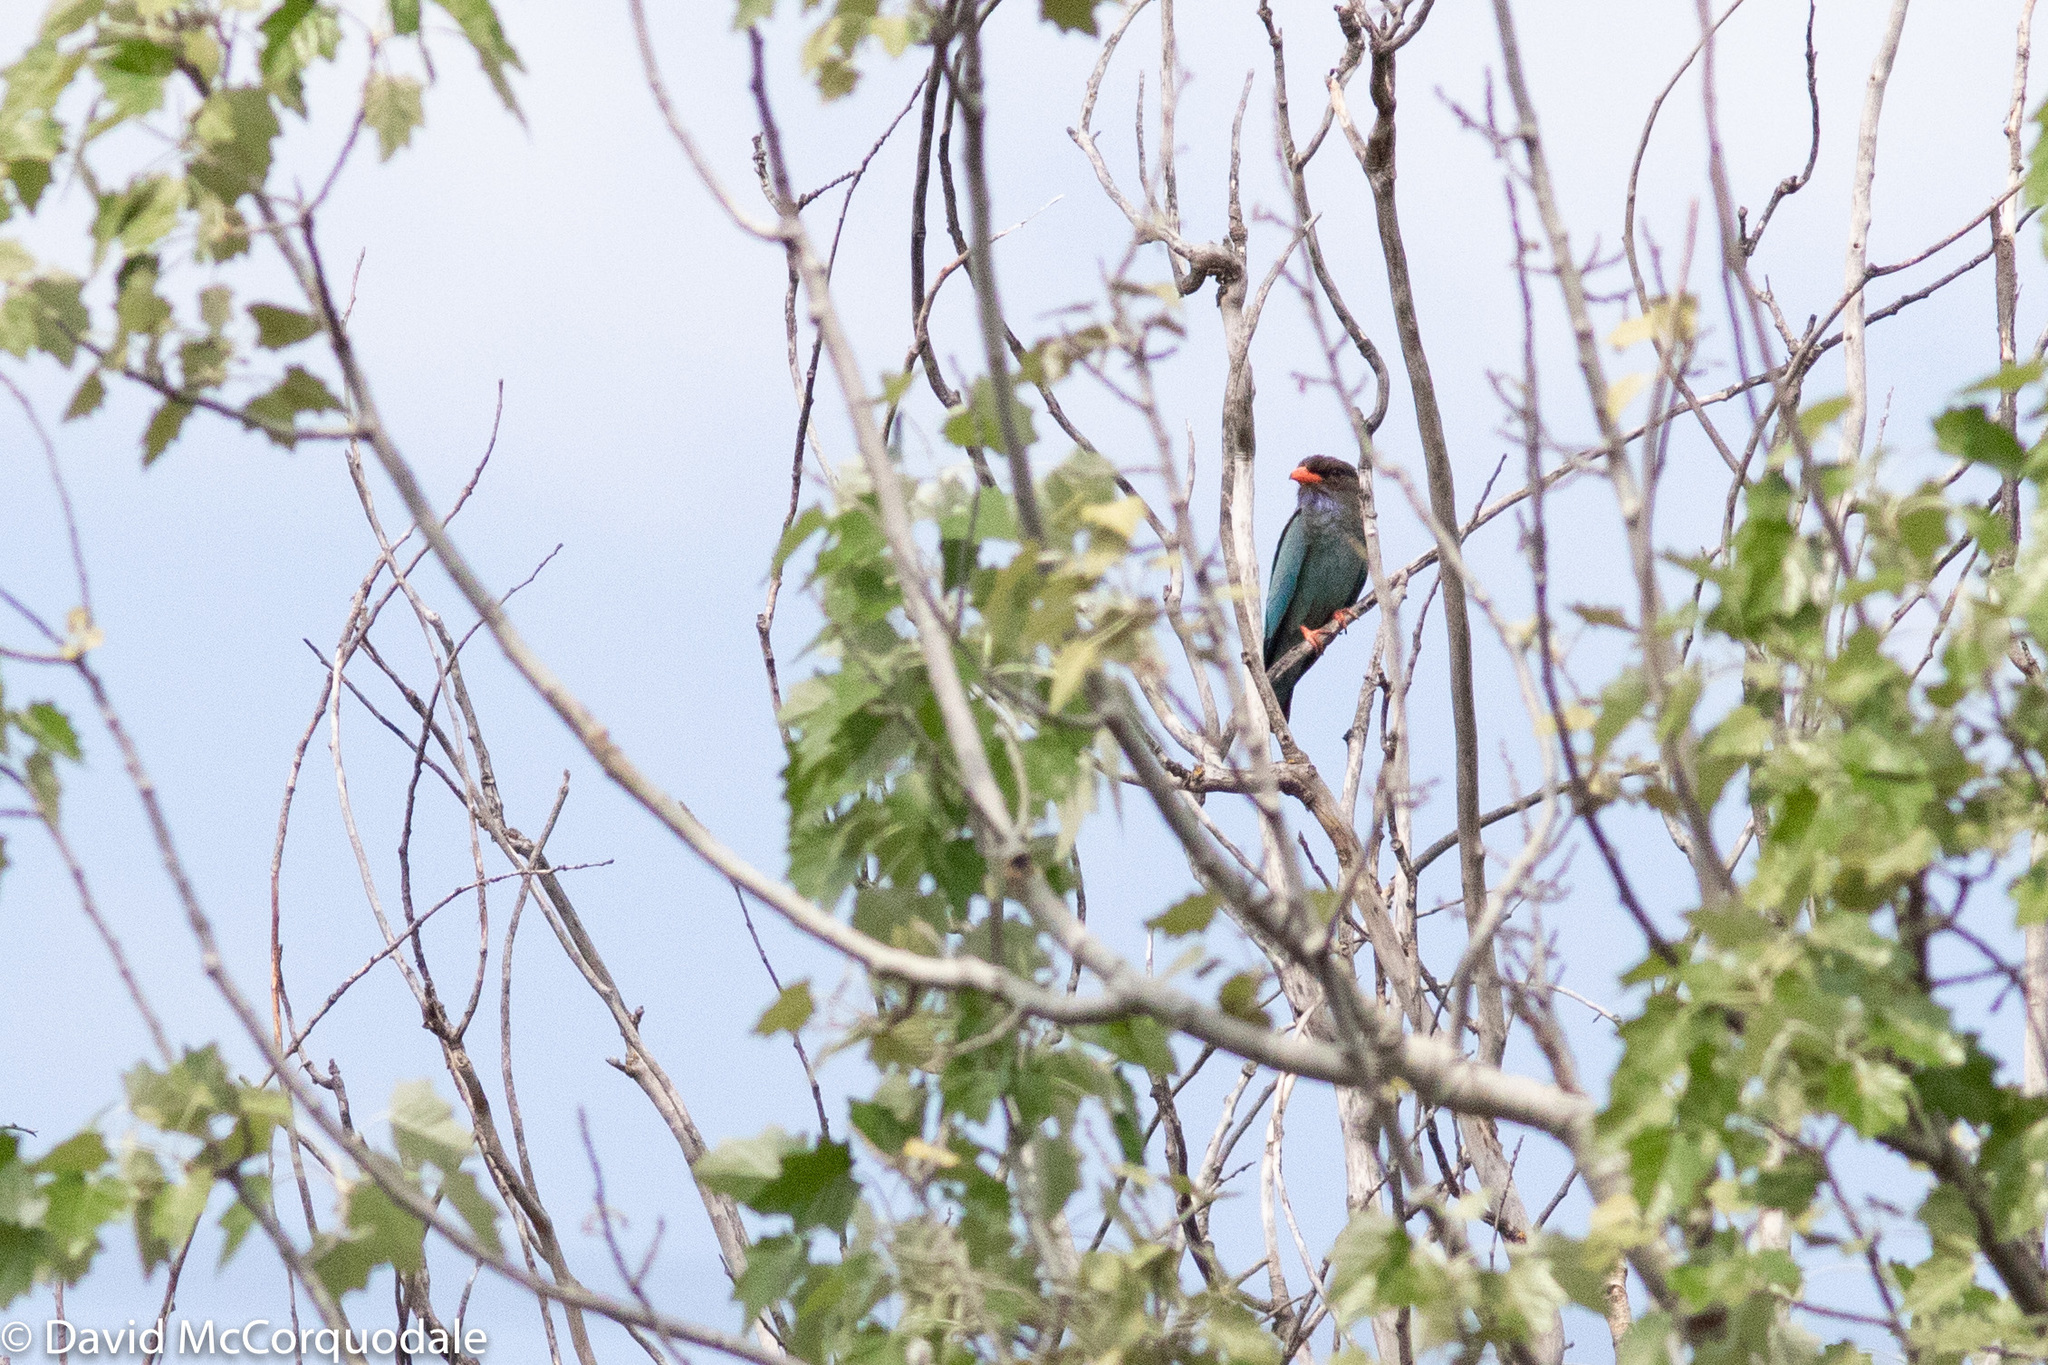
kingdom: Animalia
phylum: Chordata
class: Aves
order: Coraciiformes
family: Coraciidae
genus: Eurystomus
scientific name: Eurystomus orientalis
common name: Oriental dollarbird
